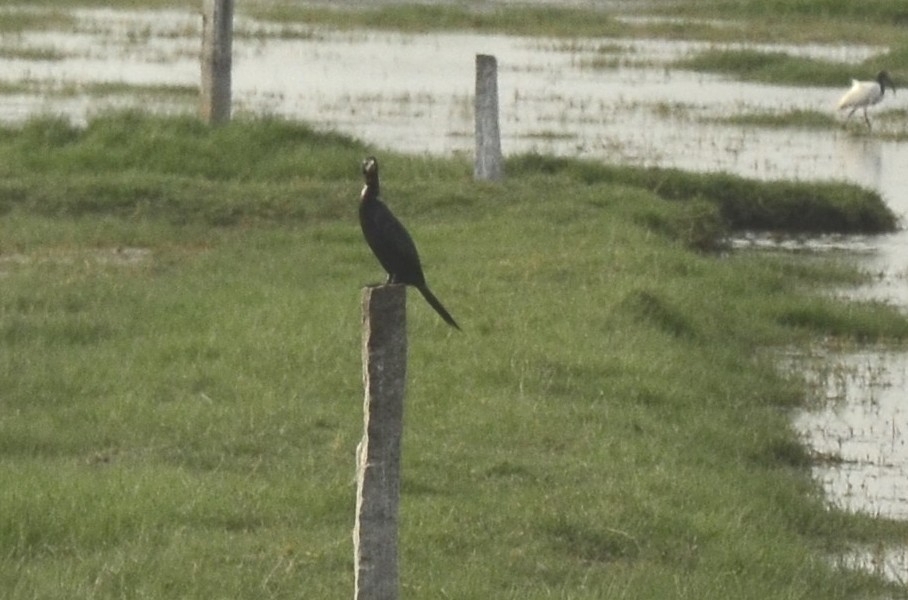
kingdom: Animalia
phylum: Chordata
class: Aves
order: Suliformes
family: Phalacrocoracidae
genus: Microcarbo
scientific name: Microcarbo niger
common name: Little cormorant
